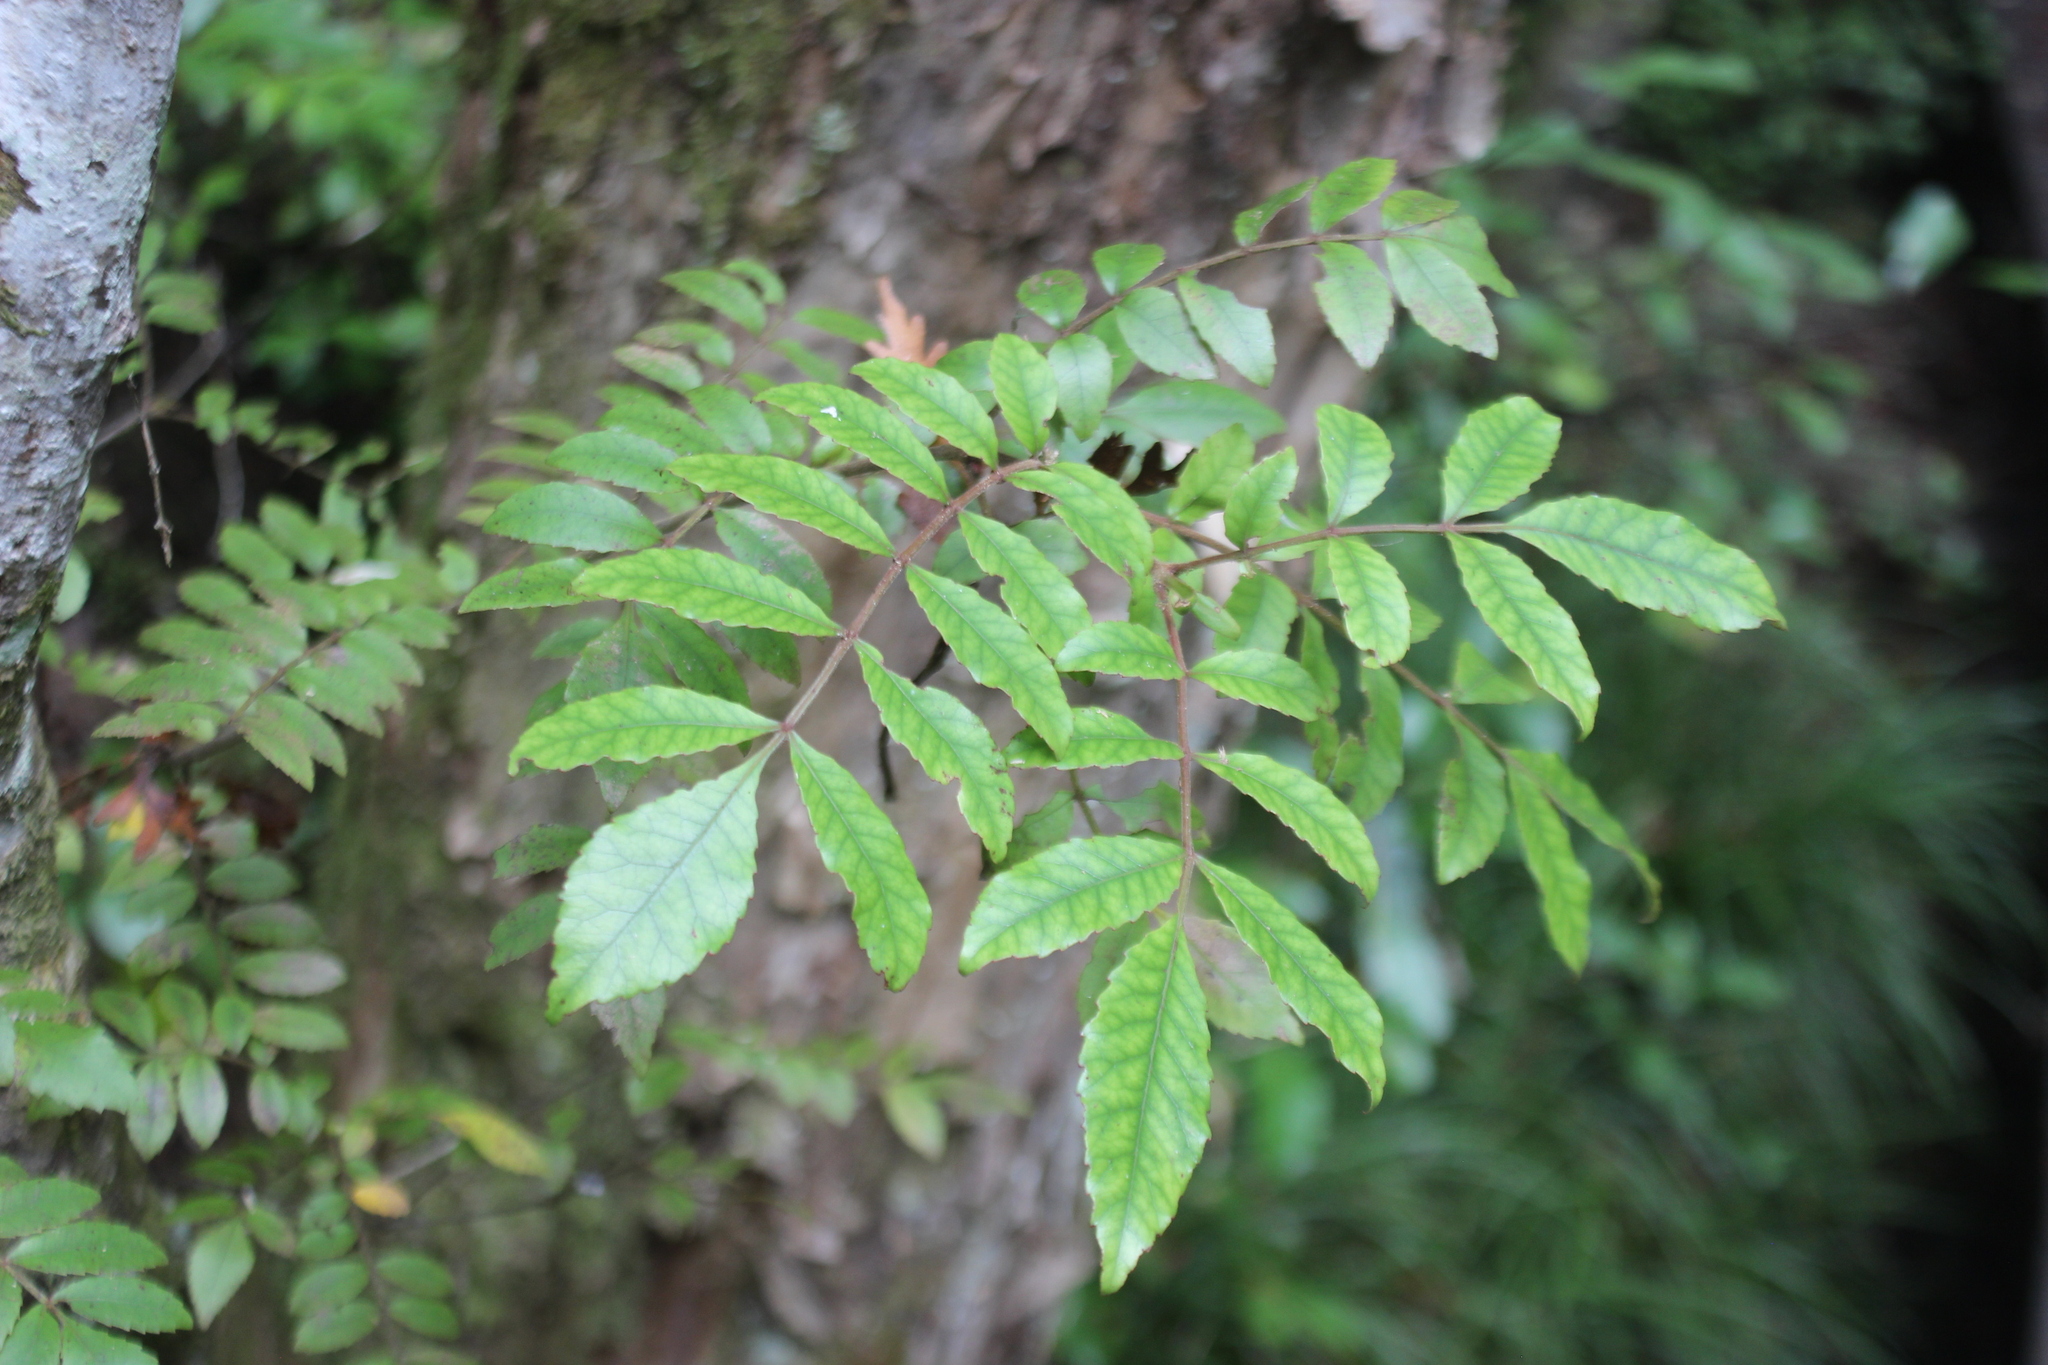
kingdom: Plantae
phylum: Tracheophyta
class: Magnoliopsida
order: Oxalidales
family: Cunoniaceae
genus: Pterophylla
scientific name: Pterophylla sylvicola
